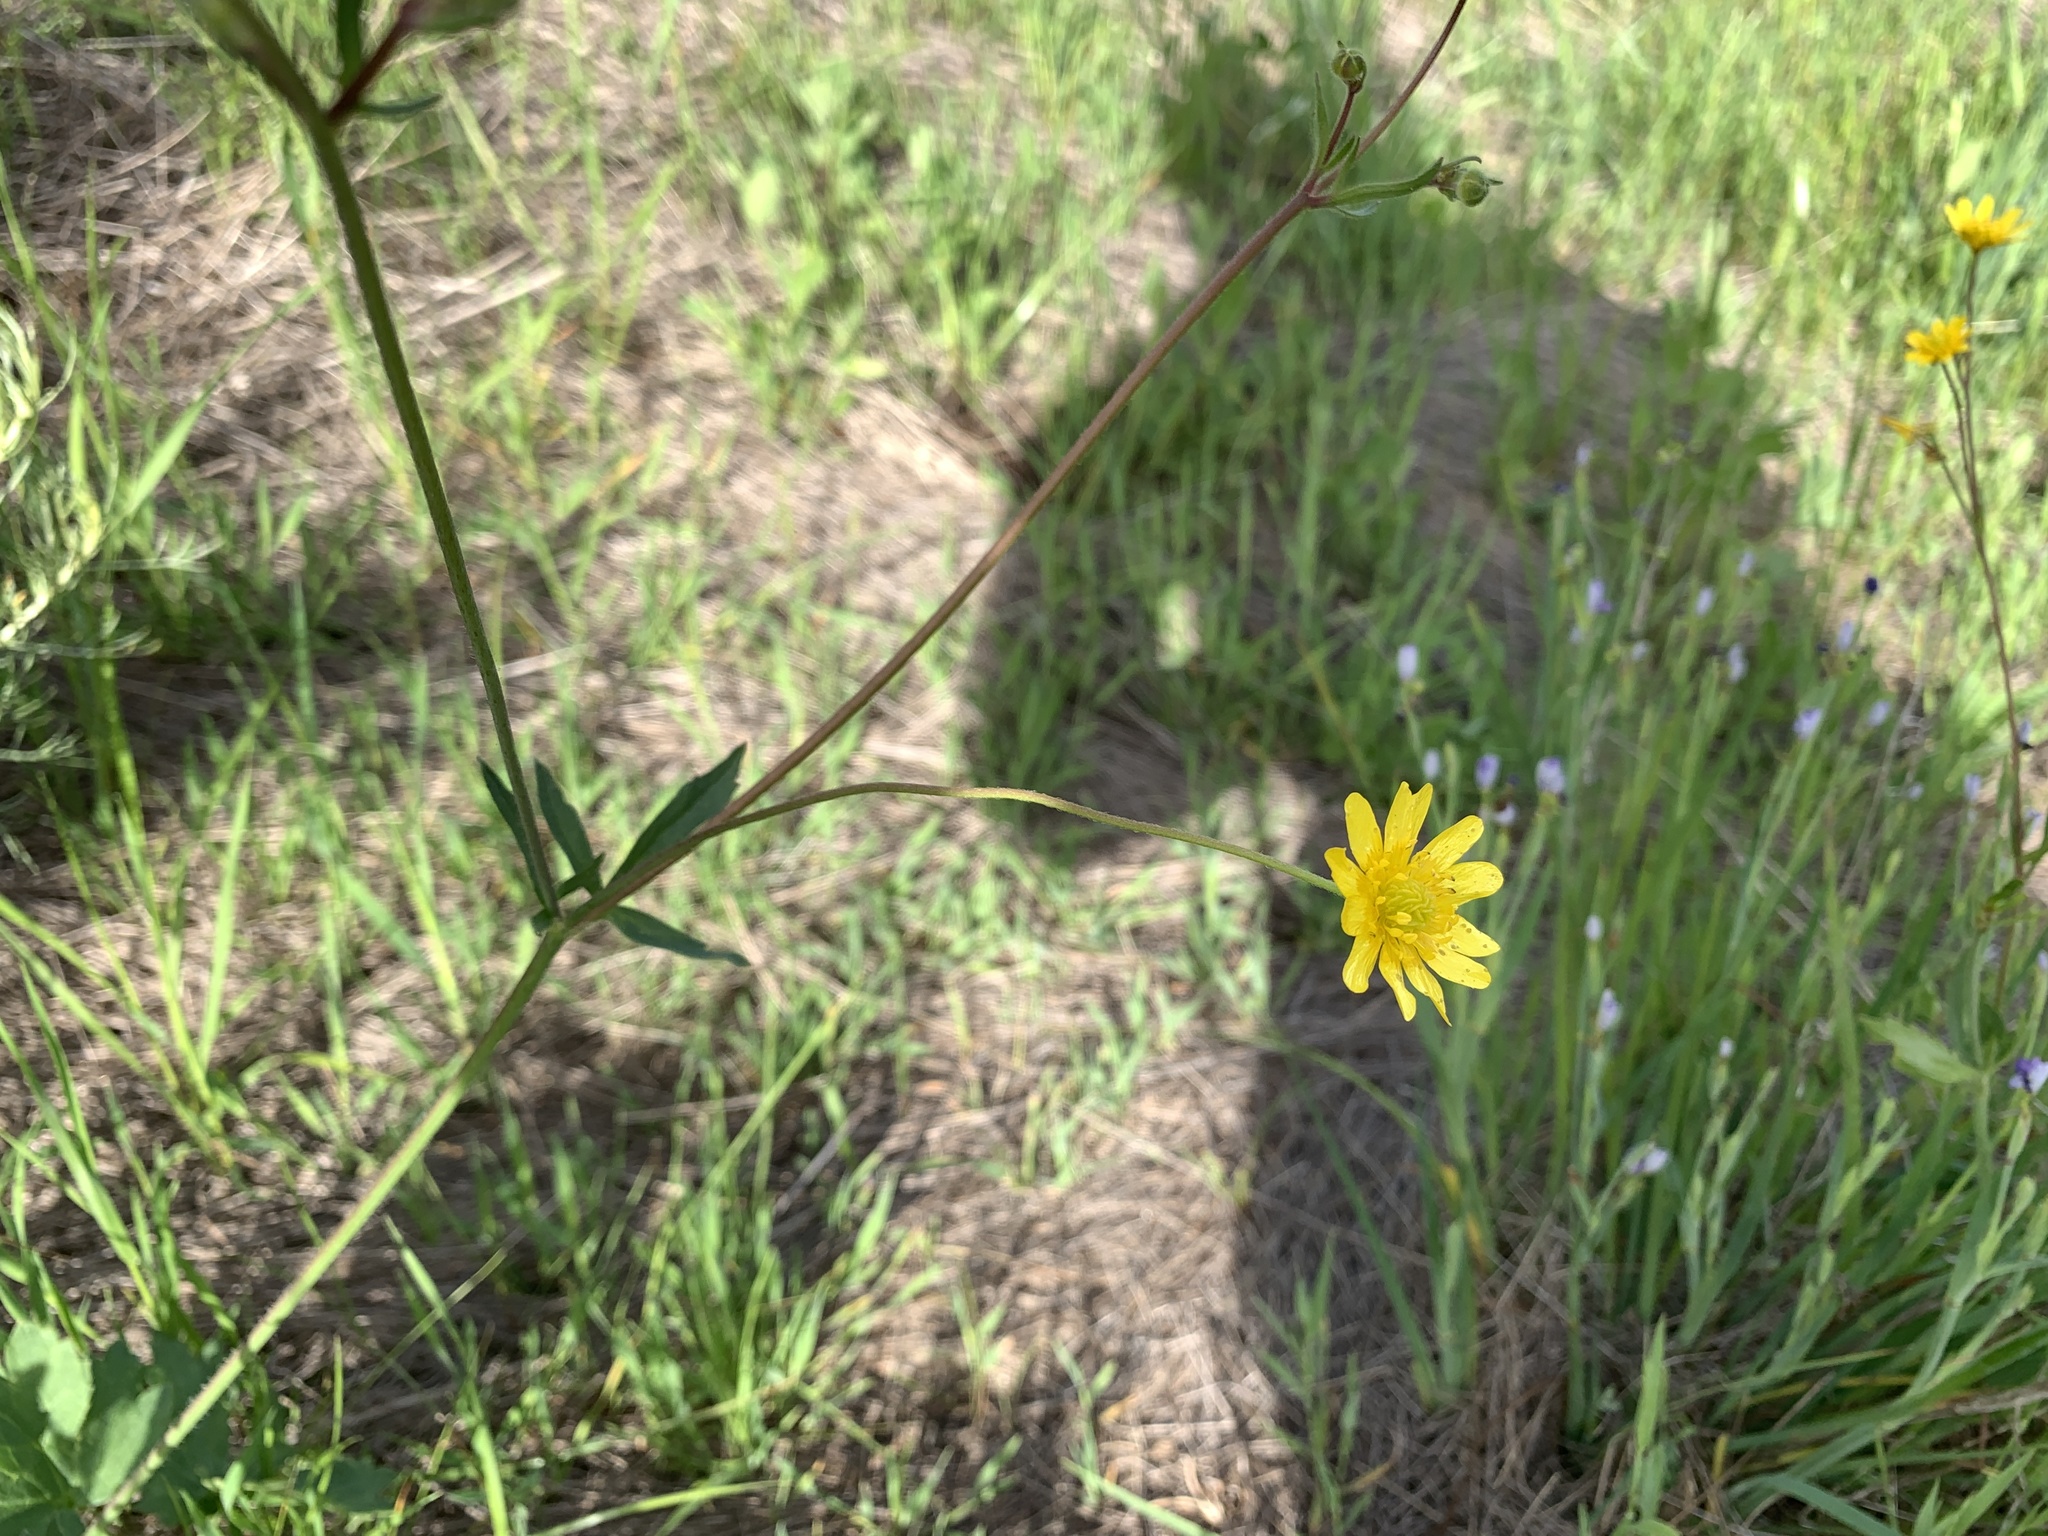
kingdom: Plantae
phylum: Tracheophyta
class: Magnoliopsida
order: Ranunculales
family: Ranunculaceae
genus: Ranunculus
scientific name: Ranunculus californicus
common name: California buttercup
